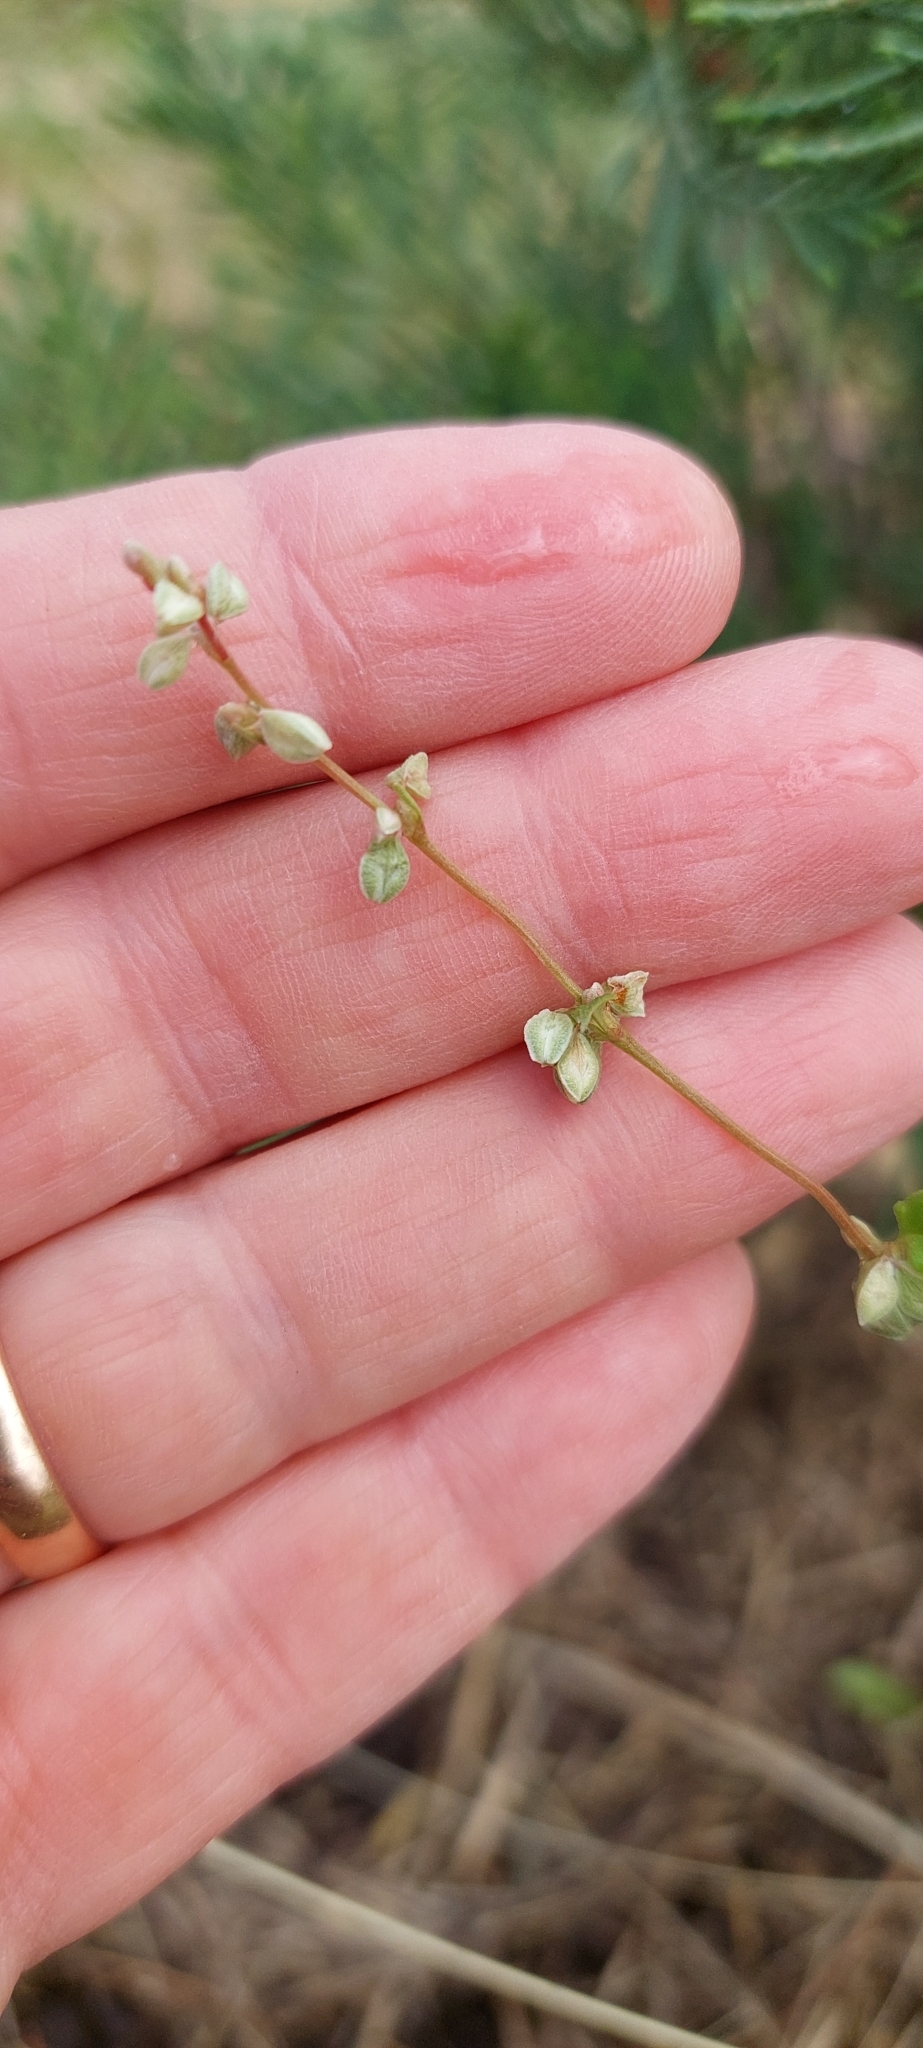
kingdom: Plantae
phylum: Tracheophyta
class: Magnoliopsida
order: Caryophyllales
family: Polygonaceae
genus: Fallopia
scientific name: Fallopia convolvulus
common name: Black bindweed
